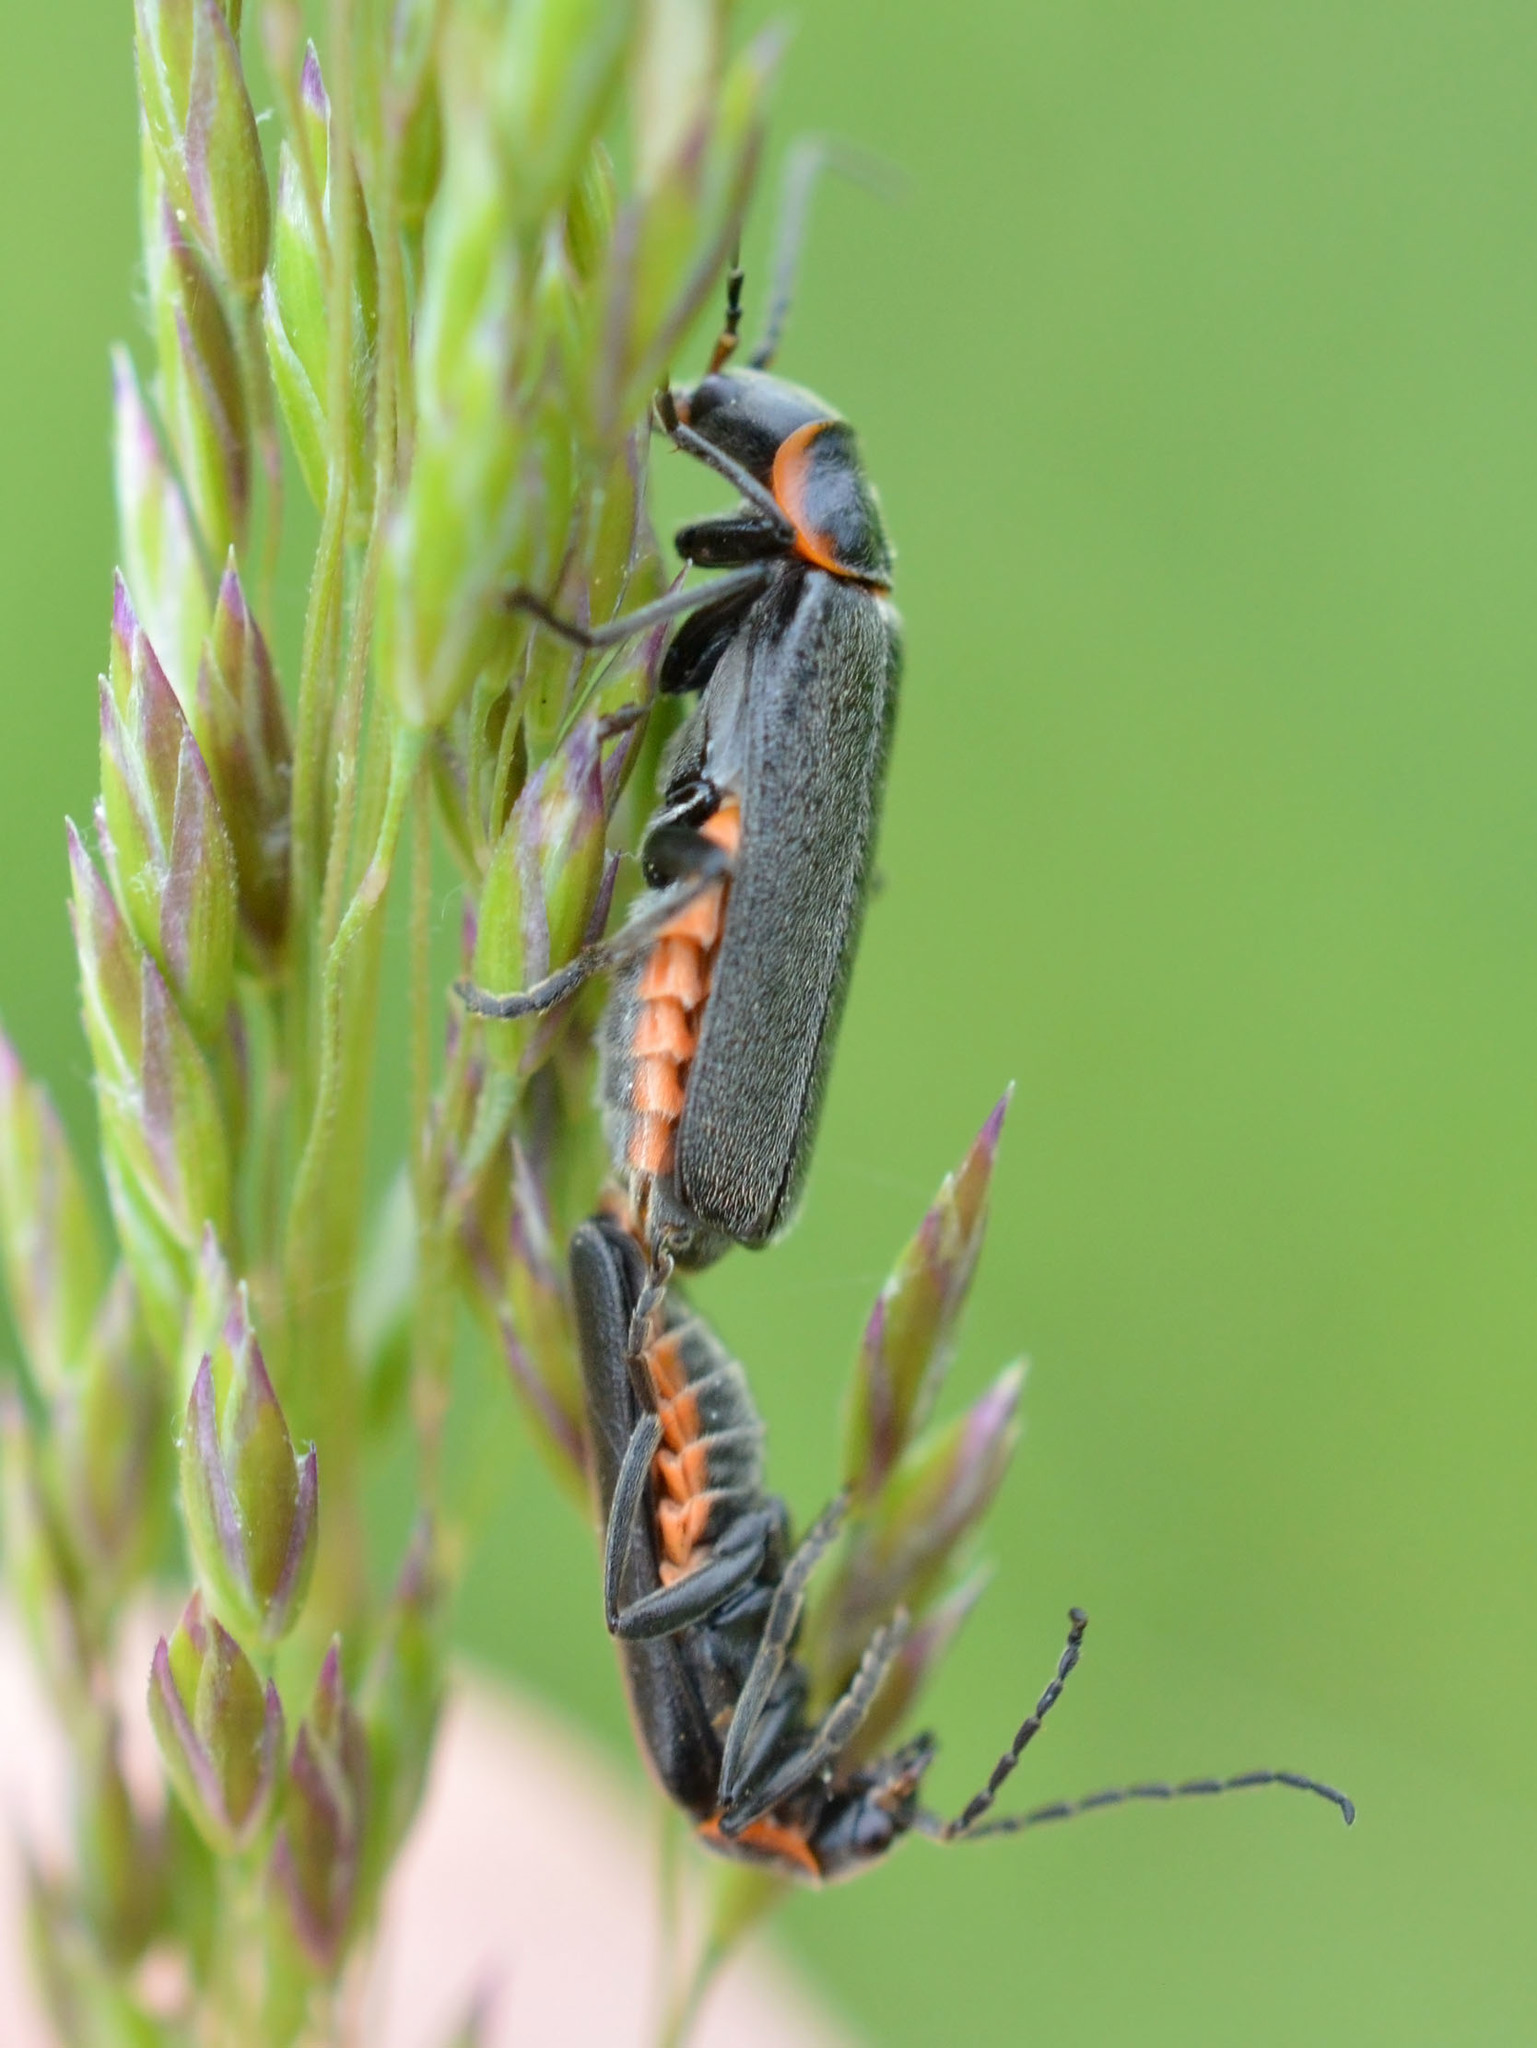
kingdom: Animalia
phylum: Arthropoda
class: Insecta
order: Coleoptera
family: Cantharidae
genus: Cantharis
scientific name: Cantharis pulicaria
